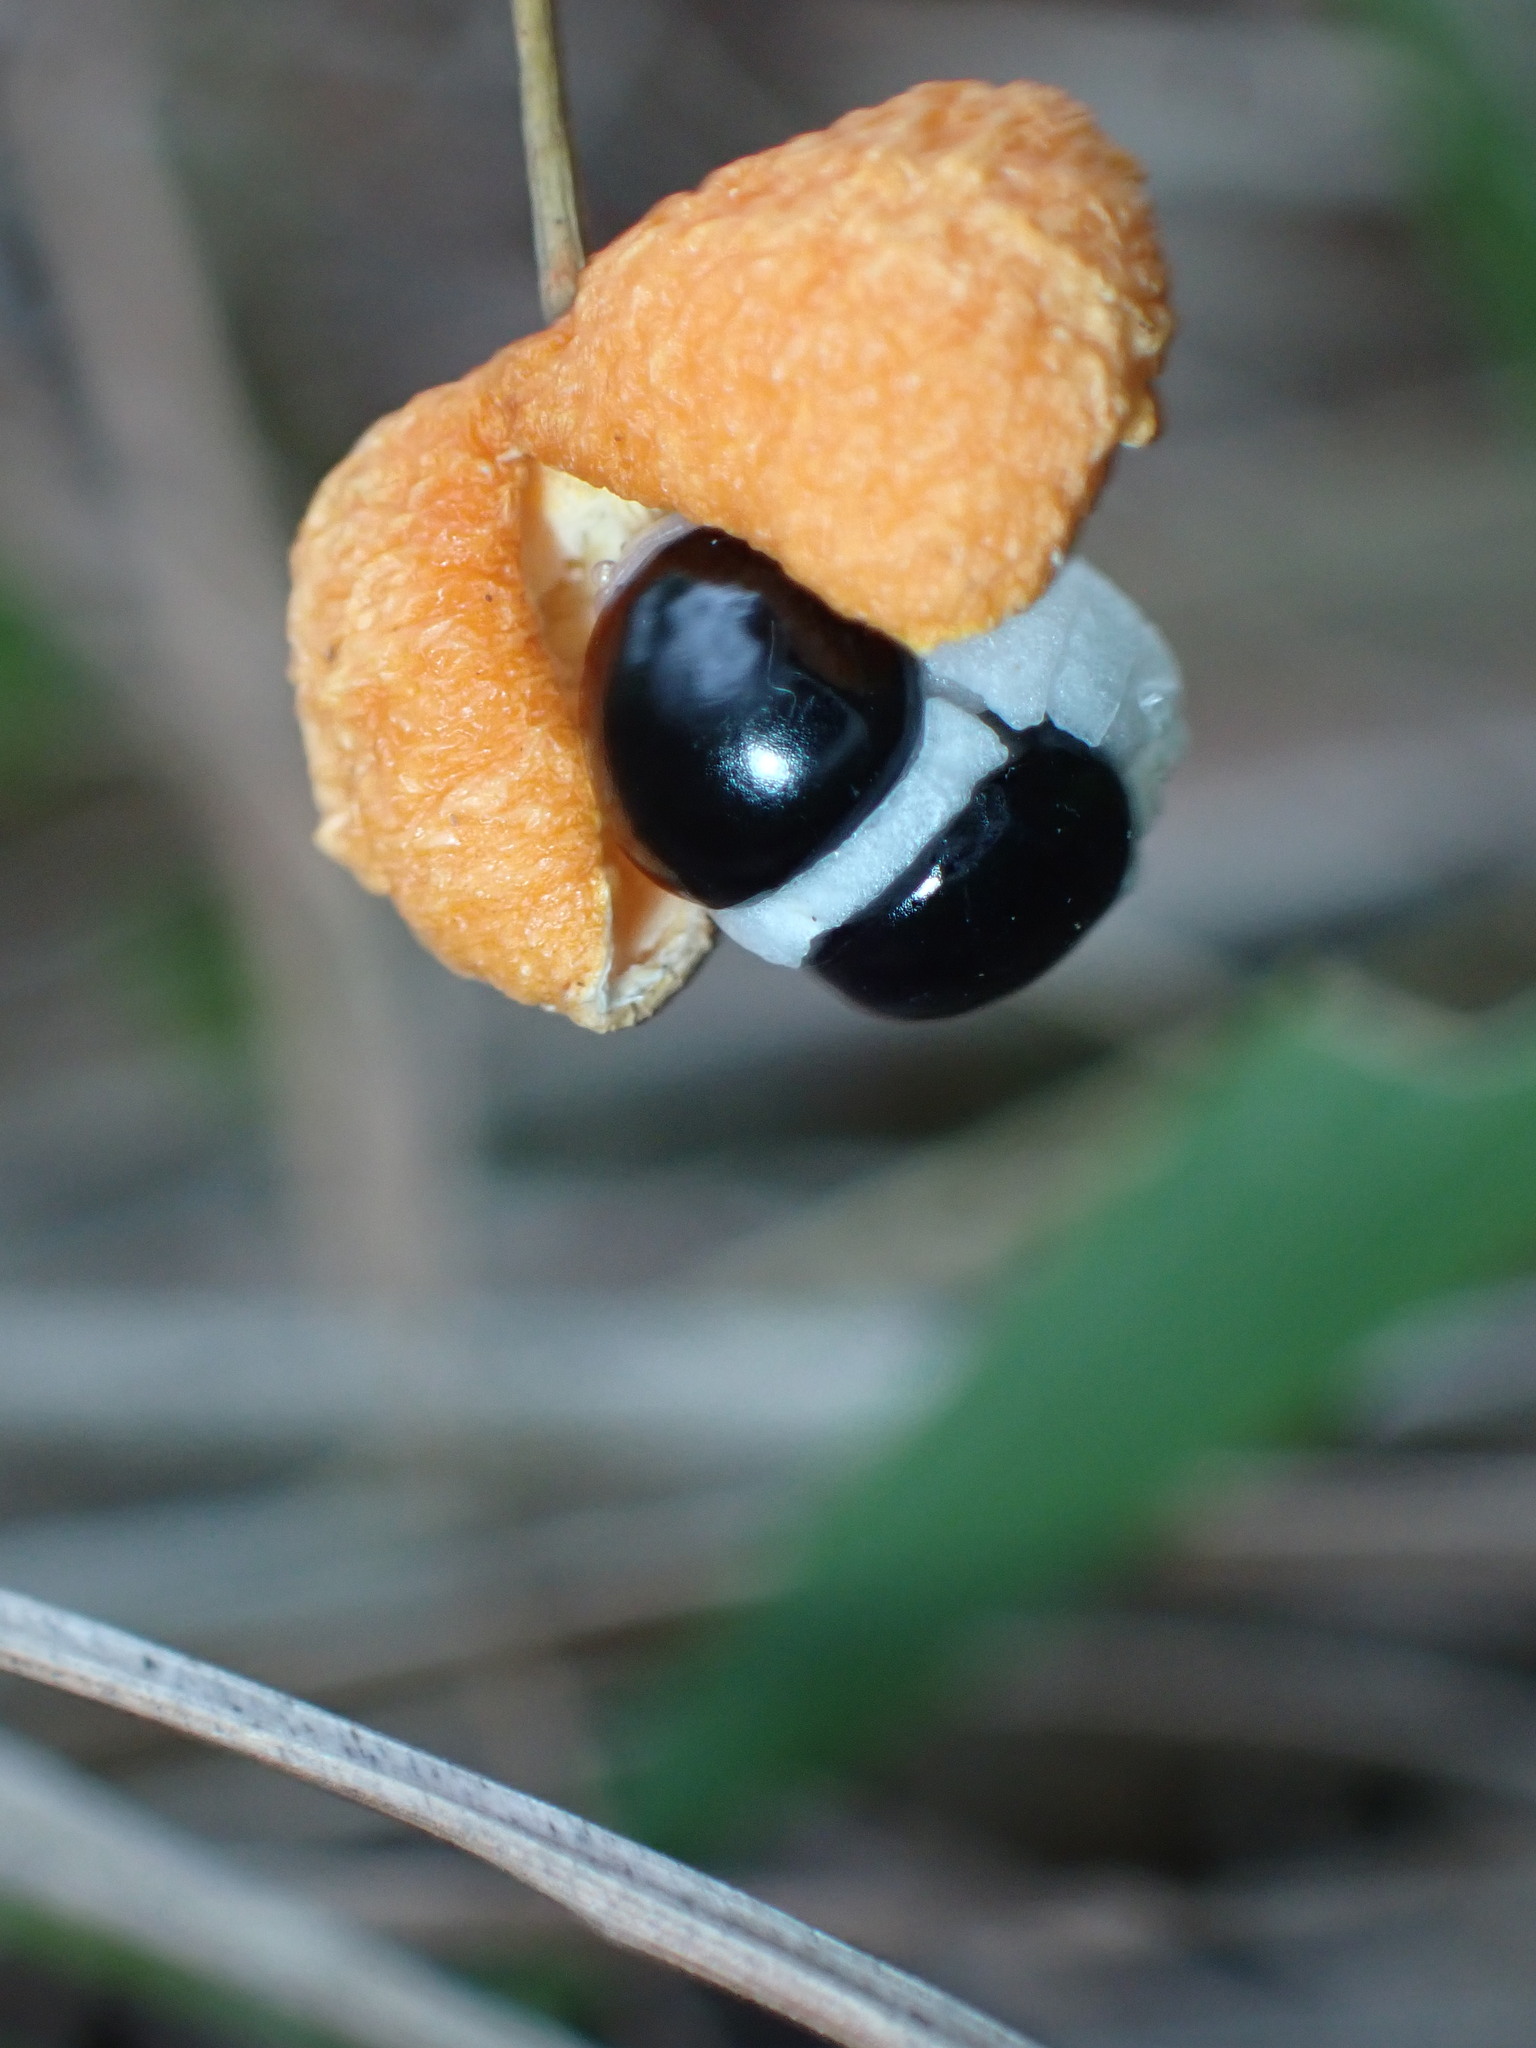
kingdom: Plantae
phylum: Tracheophyta
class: Liliopsida
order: Asparagales
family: Asparagaceae
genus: Eustrephus
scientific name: Eustrephus latifolius
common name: Orangevine
